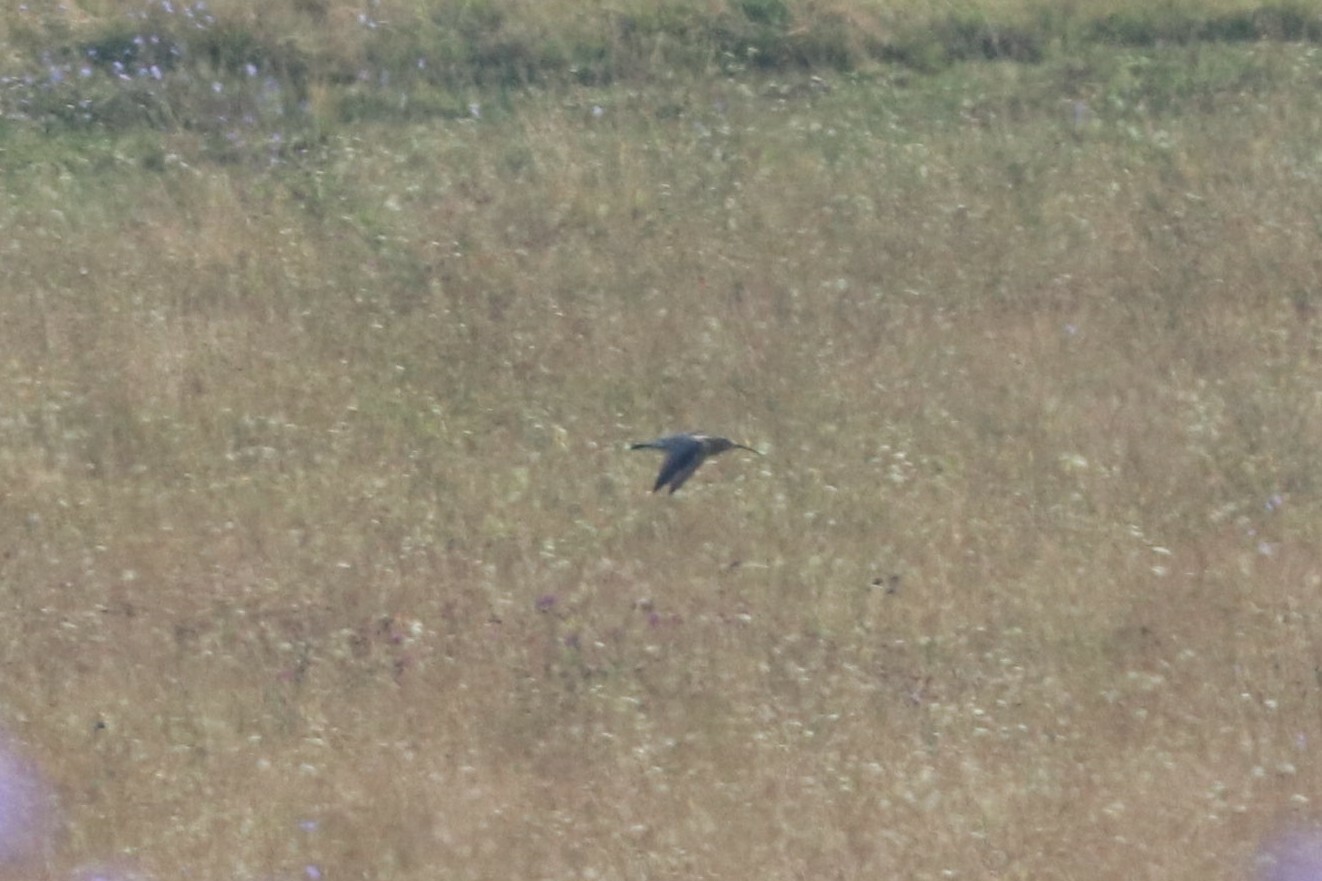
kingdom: Animalia
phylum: Chordata
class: Aves
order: Charadriiformes
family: Scolopacidae
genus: Numenius
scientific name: Numenius arquata
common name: Eurasian curlew
